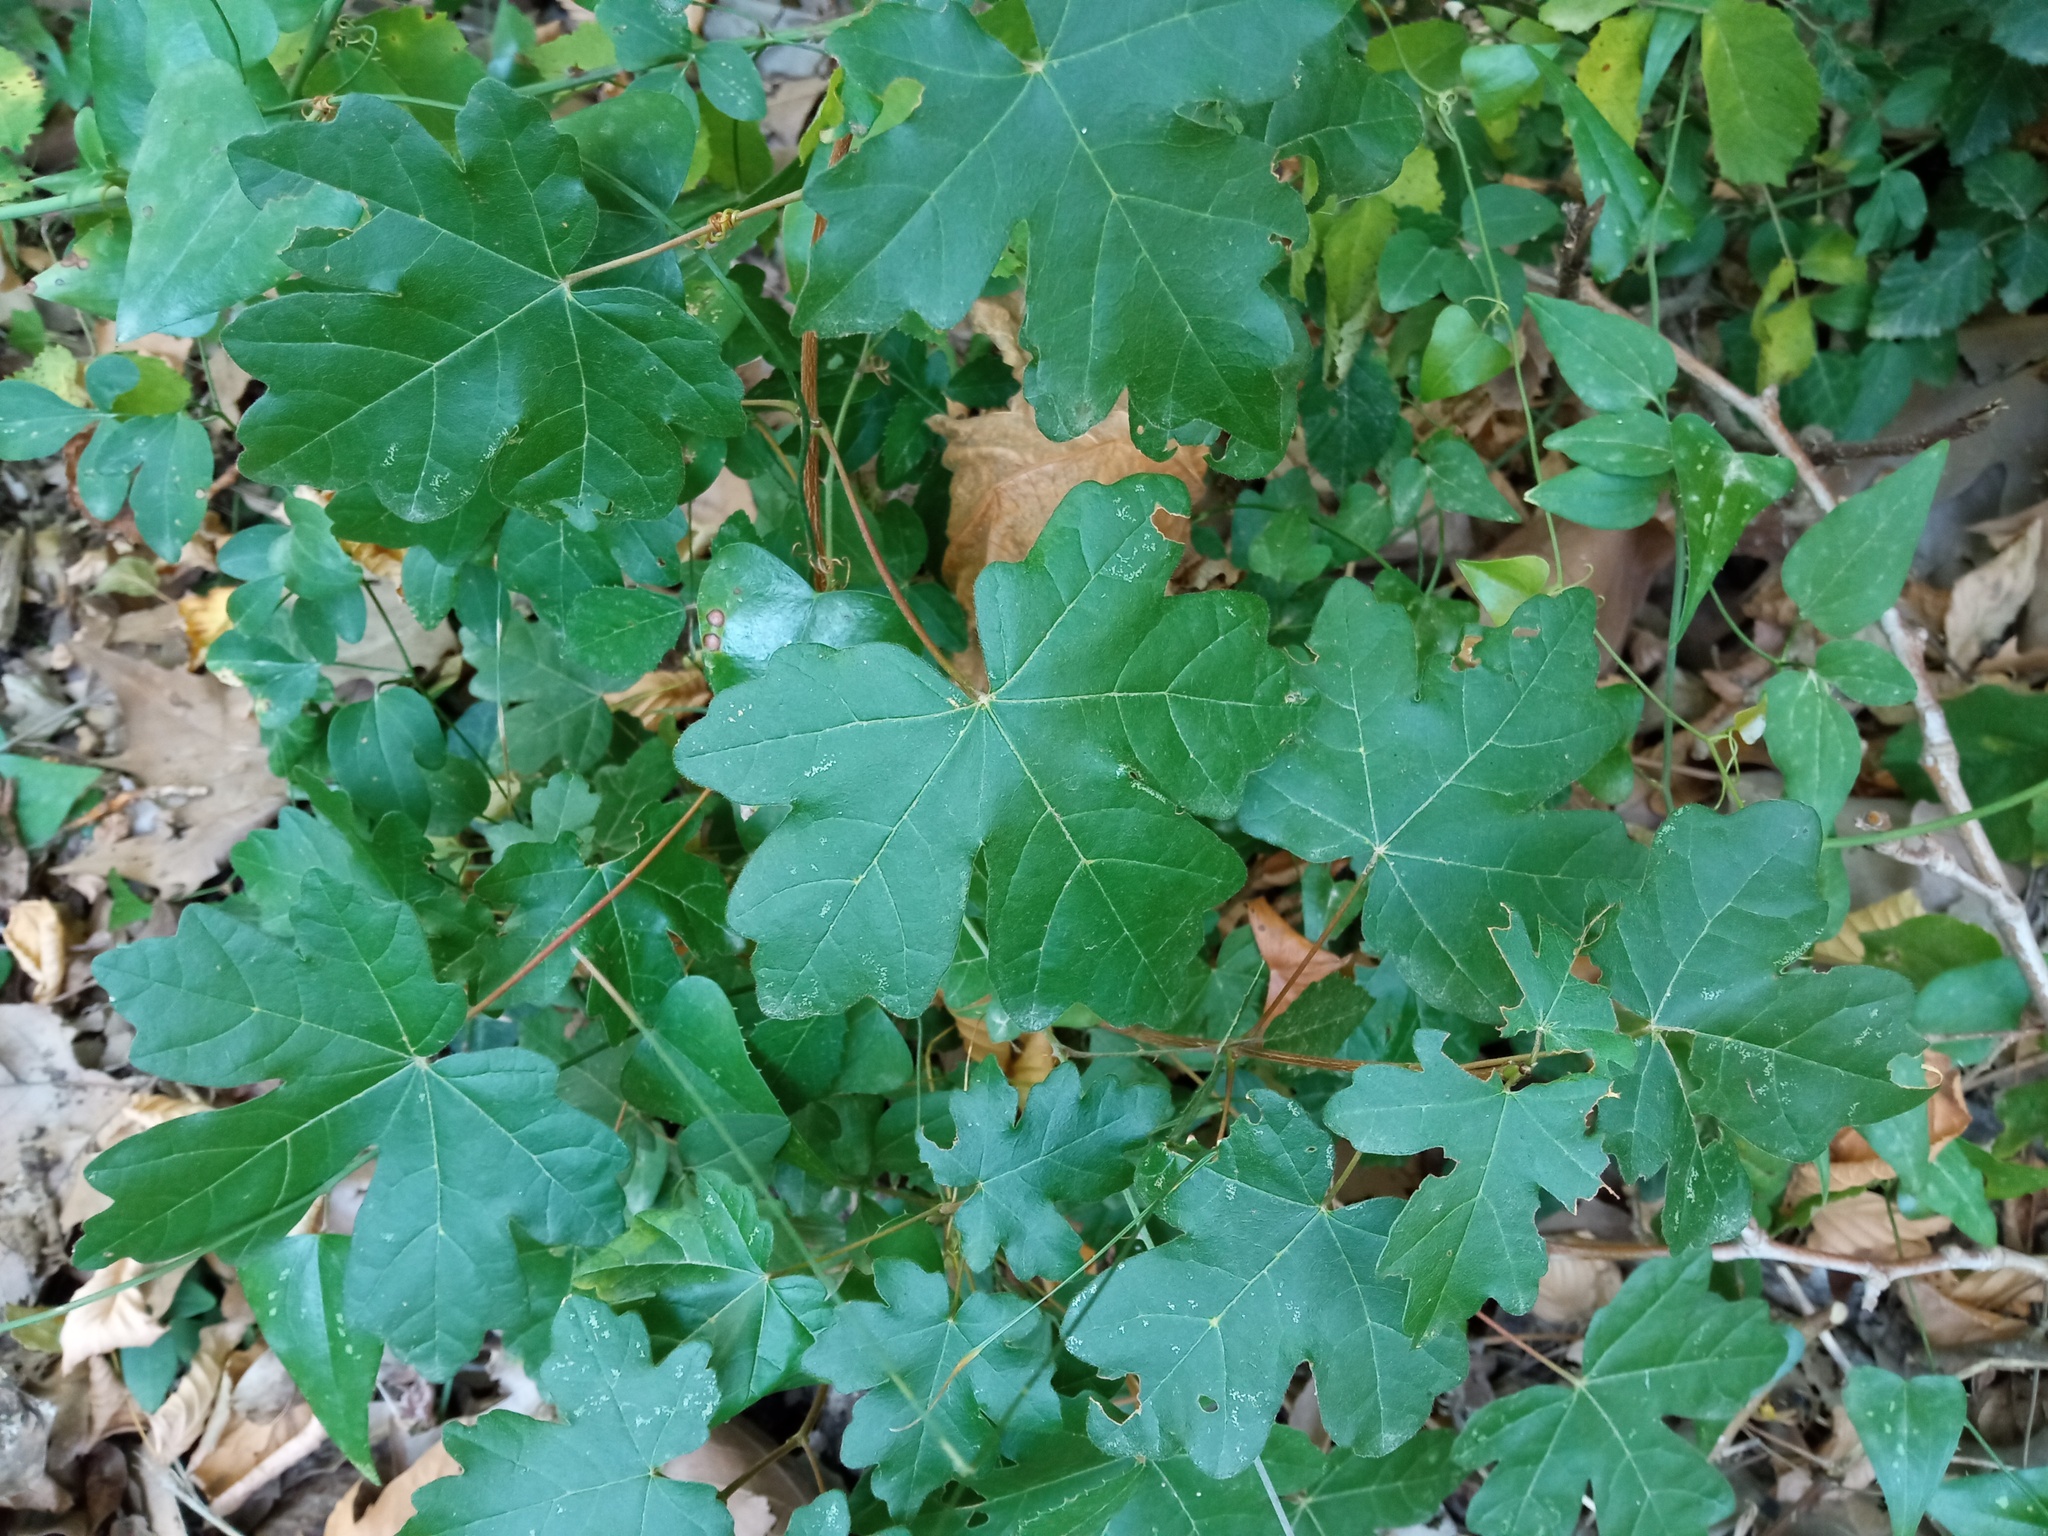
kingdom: Plantae
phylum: Tracheophyta
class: Magnoliopsida
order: Sapindales
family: Sapindaceae
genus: Acer
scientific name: Acer campestre
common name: Field maple
